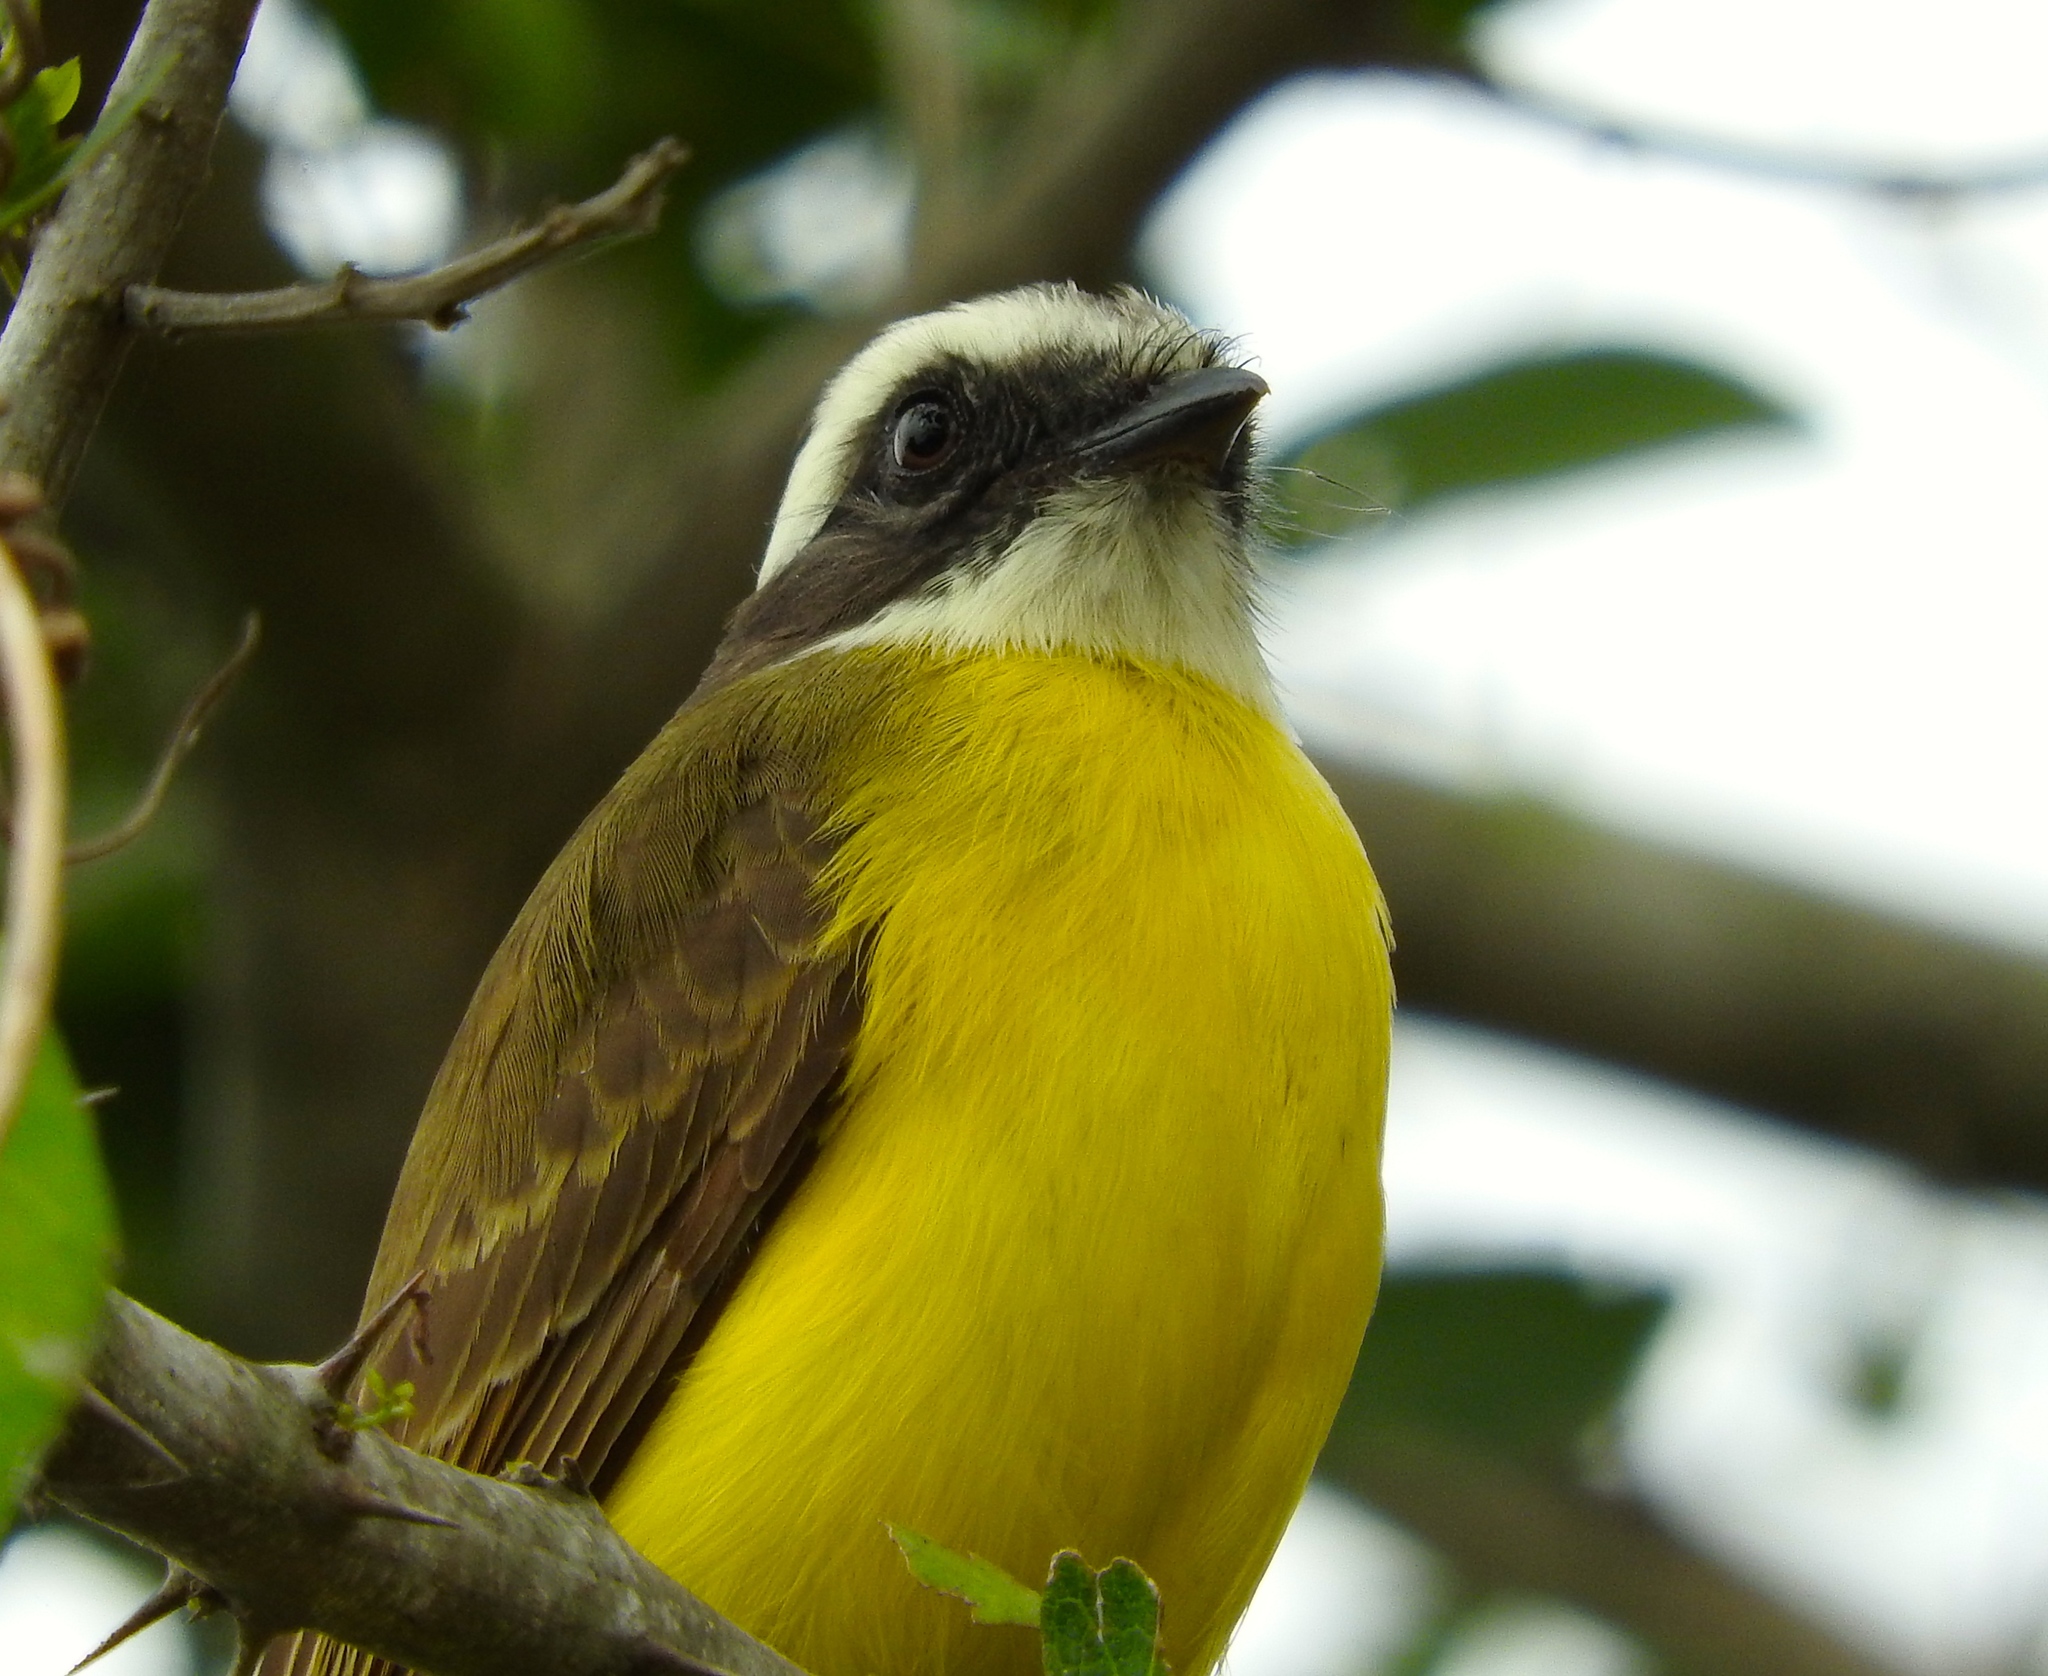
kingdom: Animalia
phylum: Chordata
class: Aves
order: Passeriformes
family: Tyrannidae
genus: Myiozetetes
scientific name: Myiozetetes similis
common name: Social flycatcher
